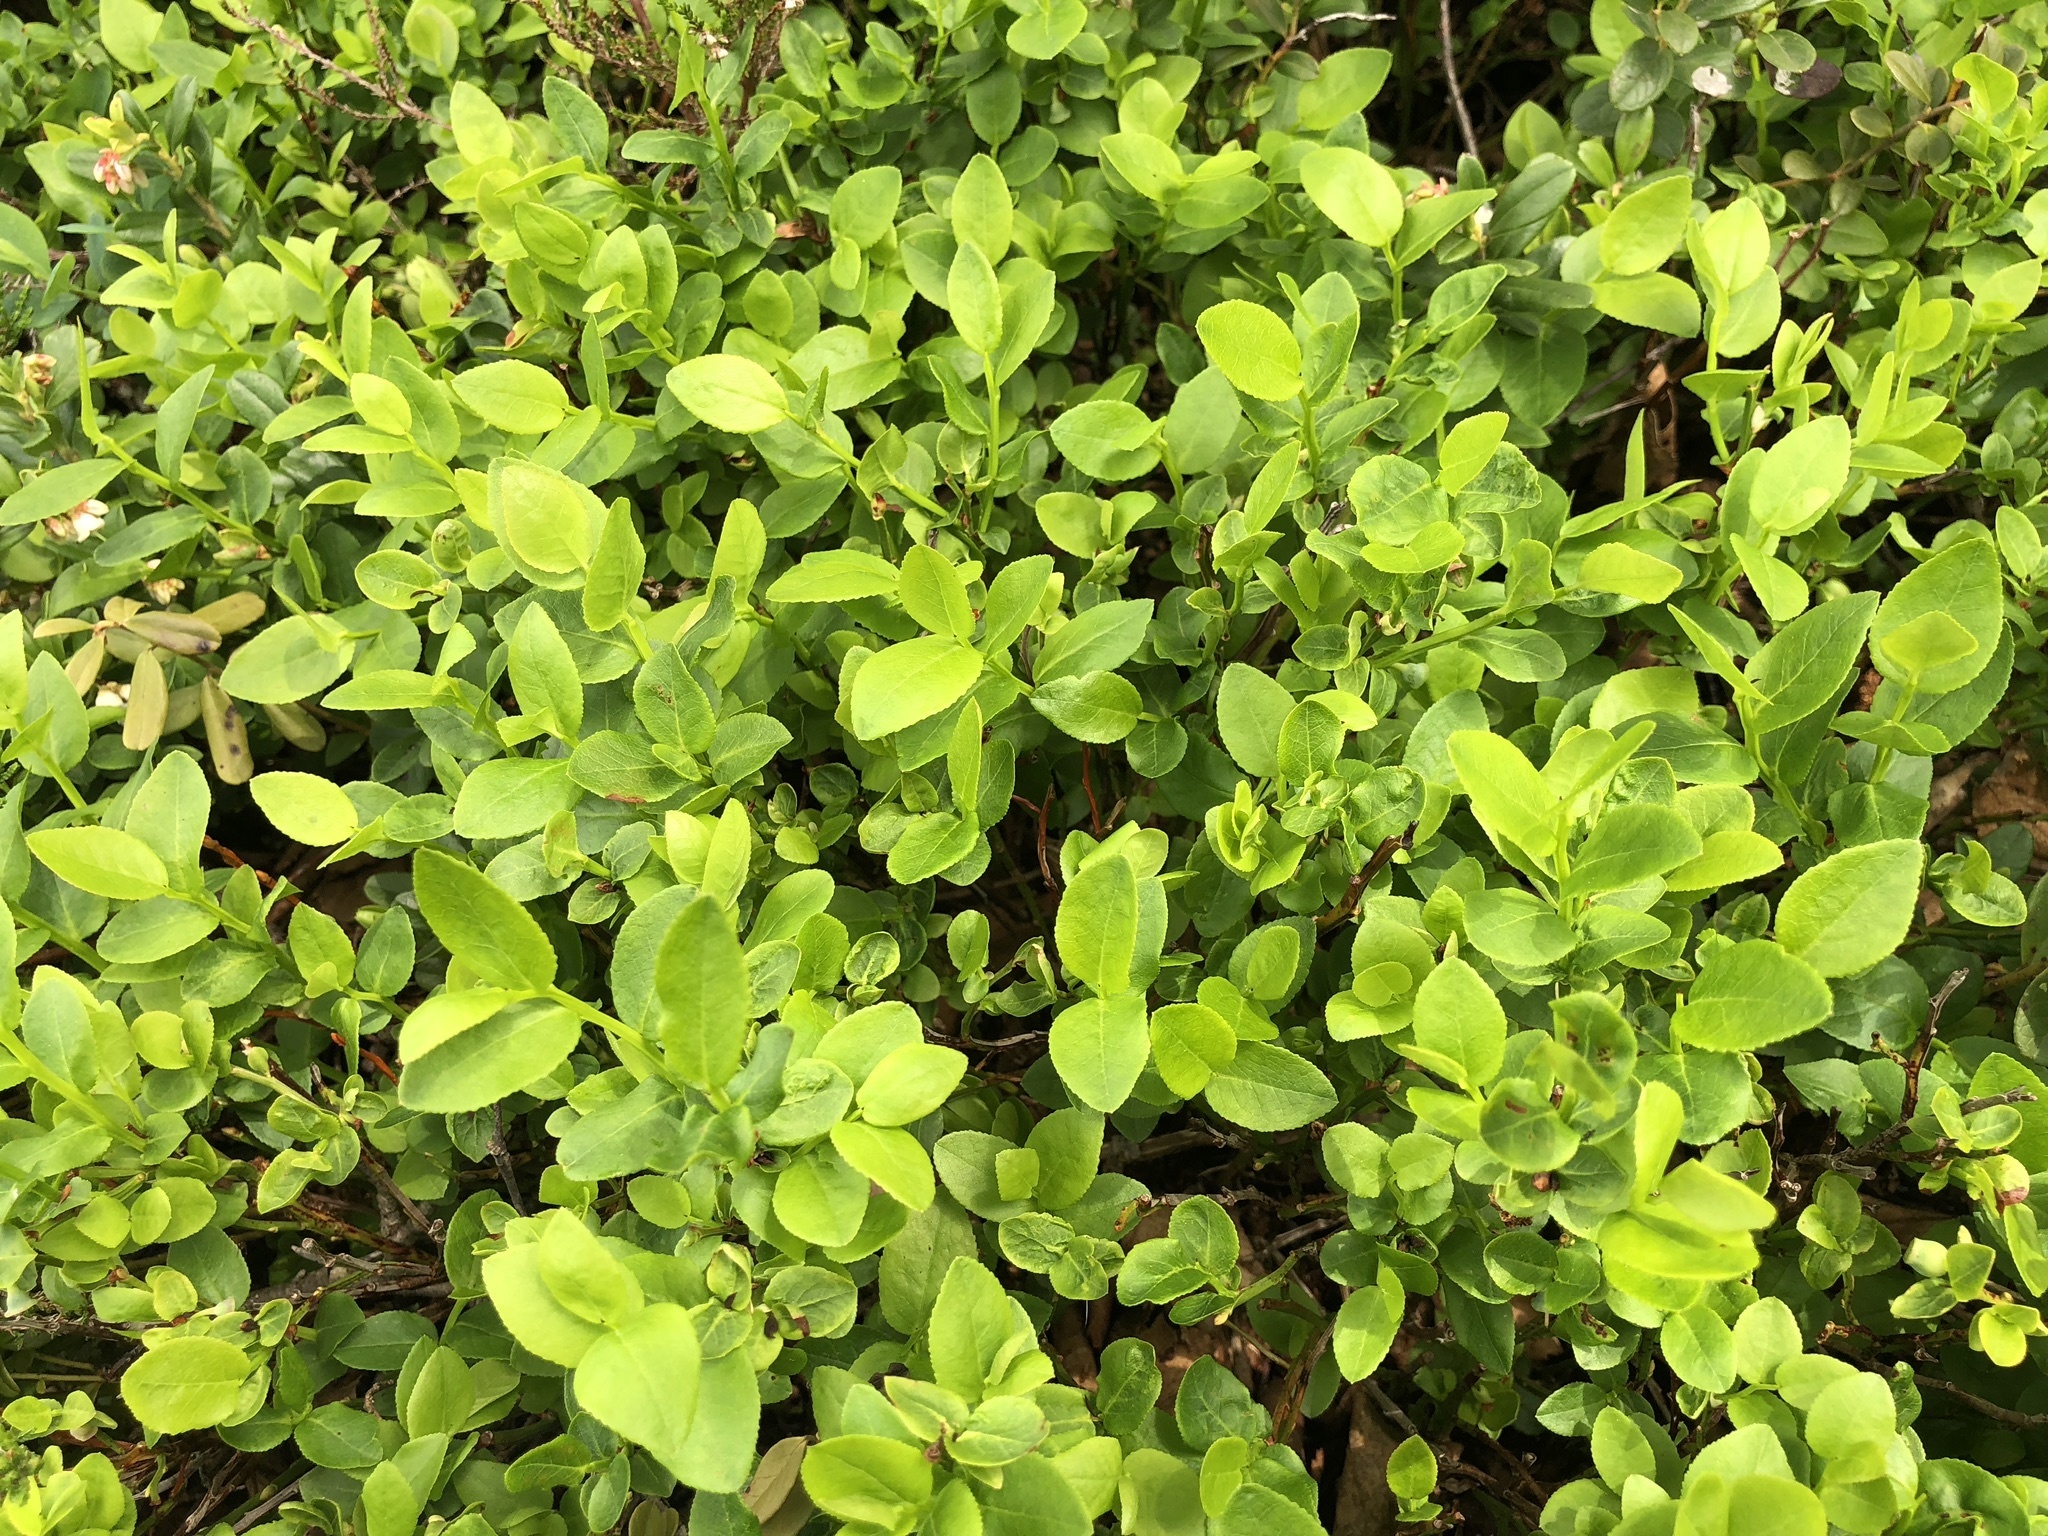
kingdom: Plantae
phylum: Tracheophyta
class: Magnoliopsida
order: Ericales
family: Ericaceae
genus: Vaccinium
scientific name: Vaccinium myrtillus
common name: Bilberry
